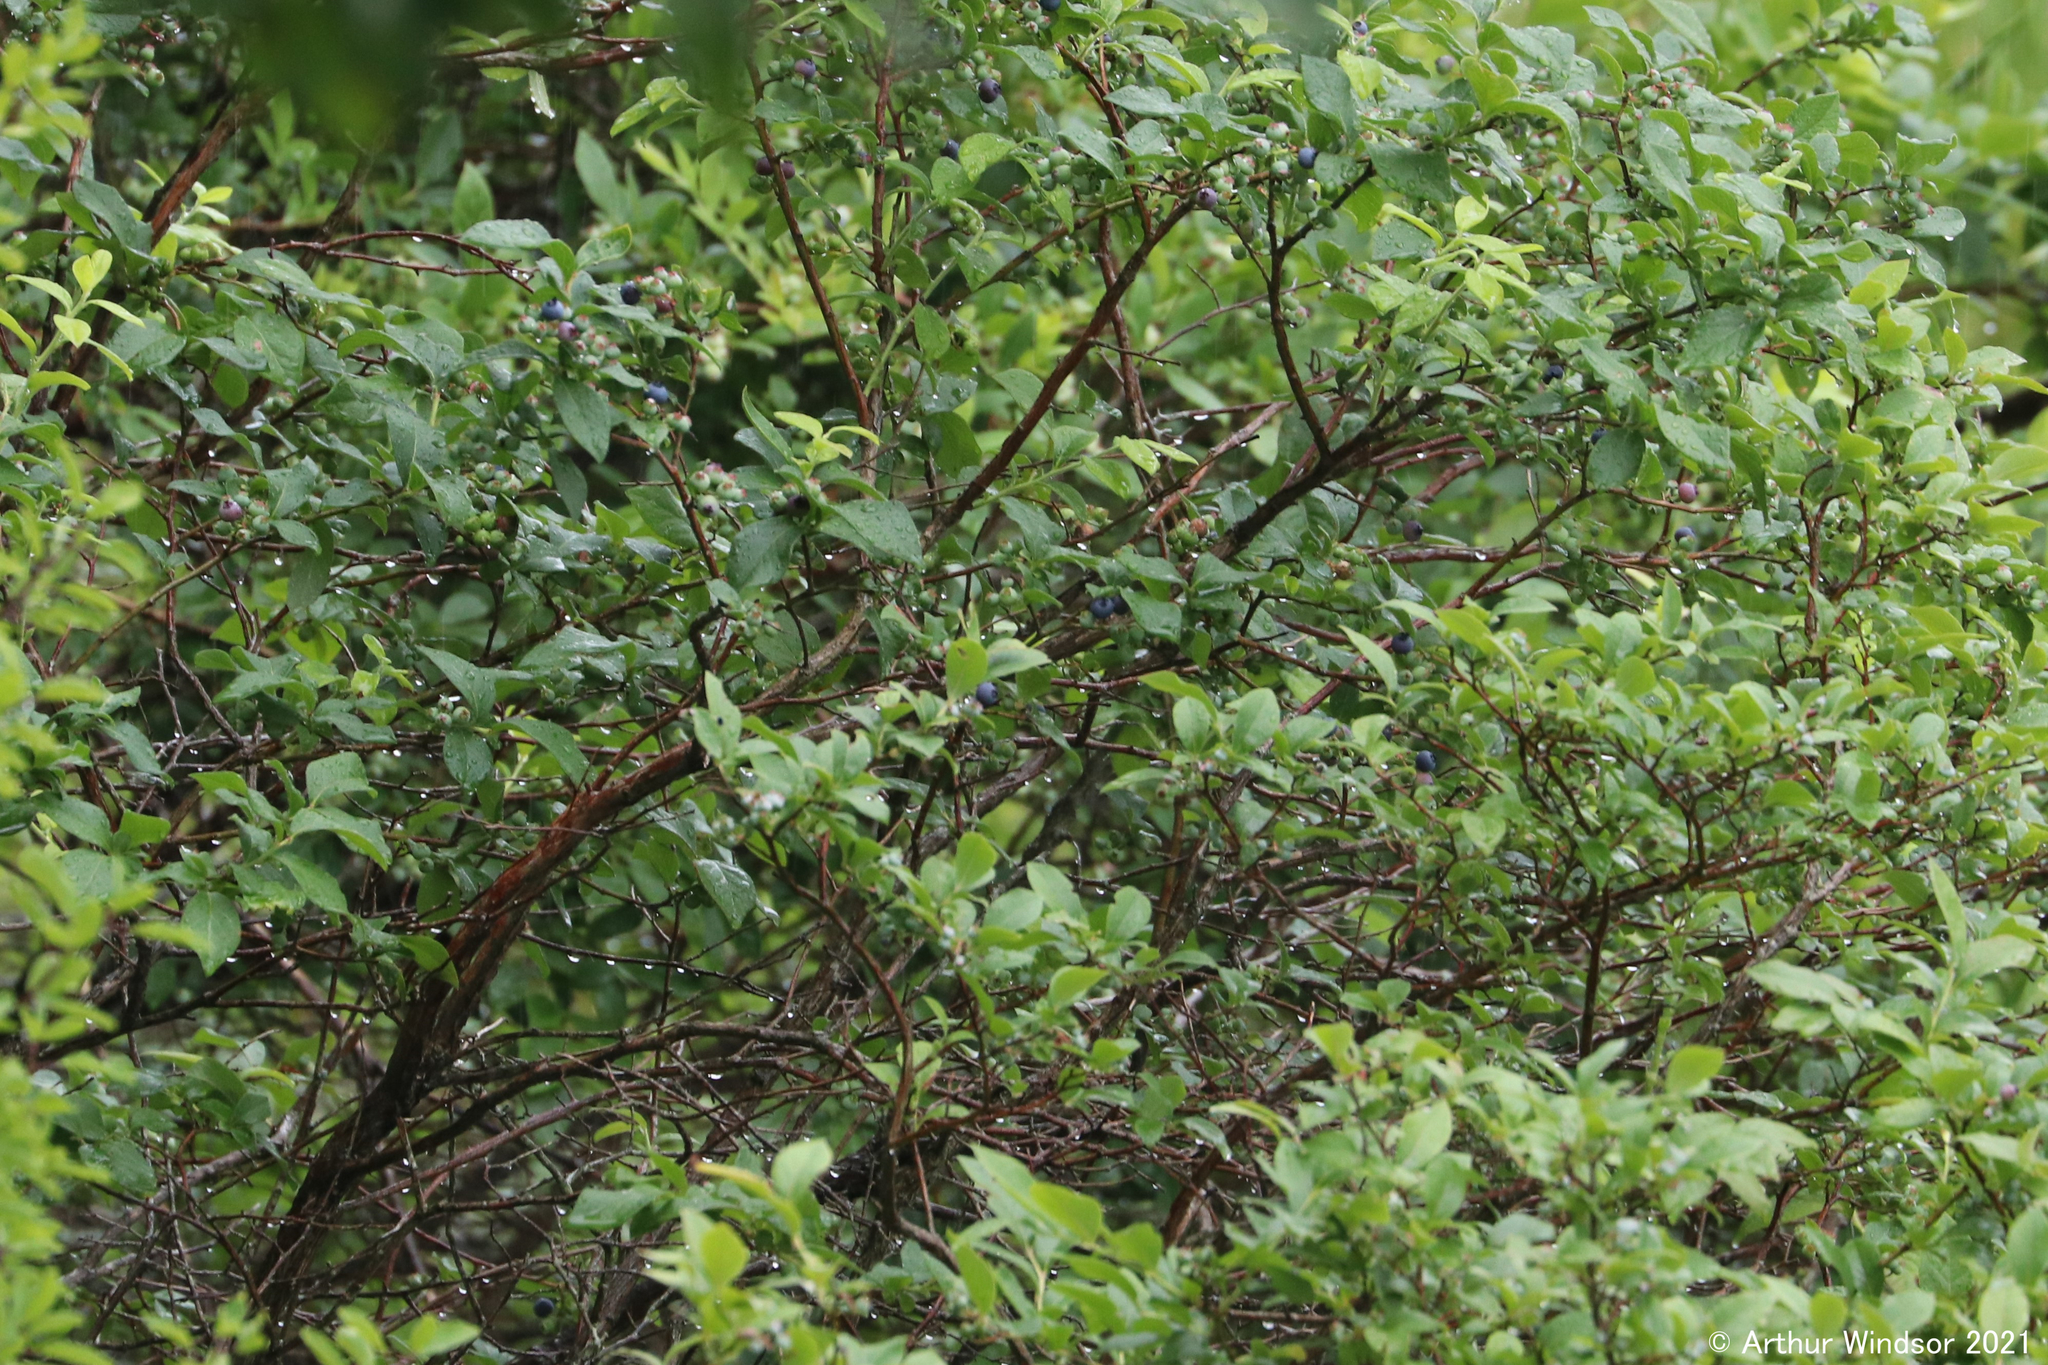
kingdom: Plantae
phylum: Tracheophyta
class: Magnoliopsida
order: Ericales
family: Ericaceae
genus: Vaccinium
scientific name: Vaccinium corymbosum
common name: Blueberry
